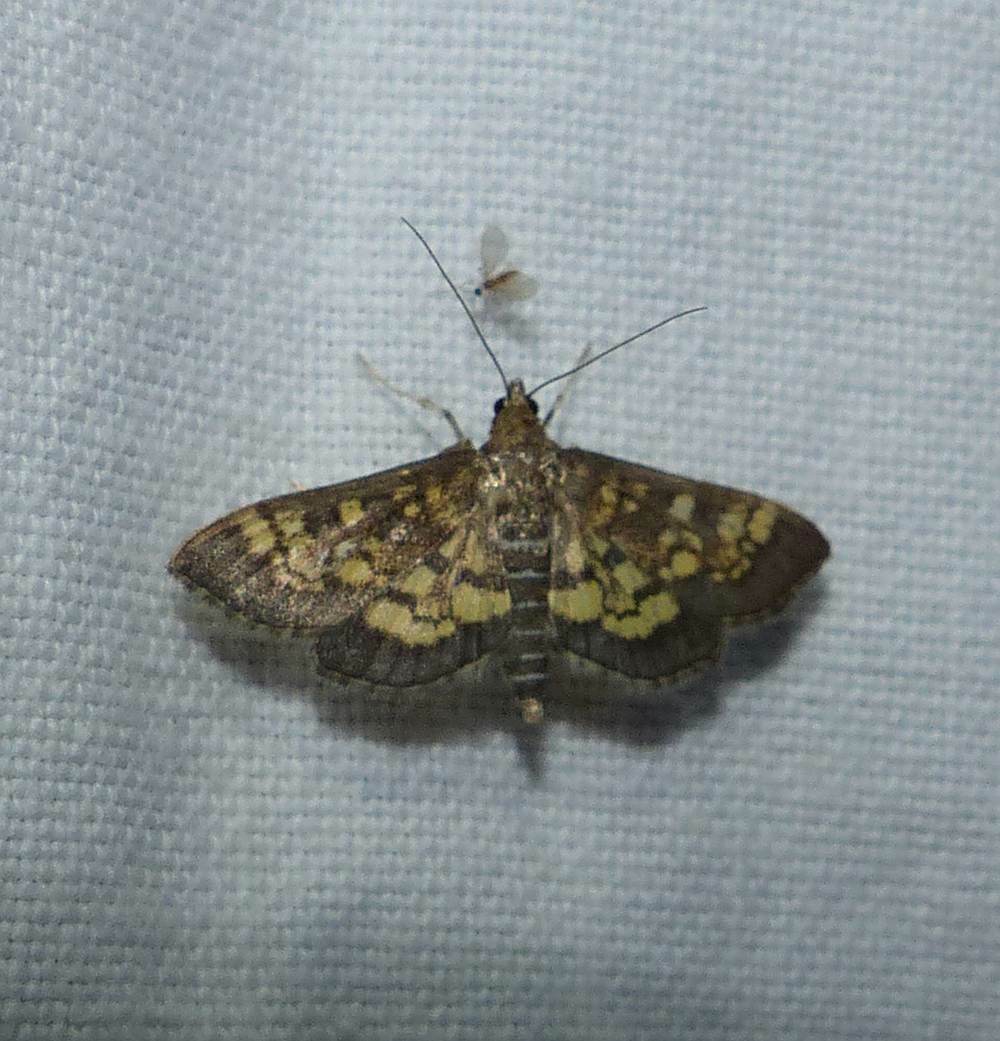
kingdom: Animalia
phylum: Arthropoda
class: Insecta
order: Lepidoptera
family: Crambidae
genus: Epipagis
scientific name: Epipagis adipaloides
